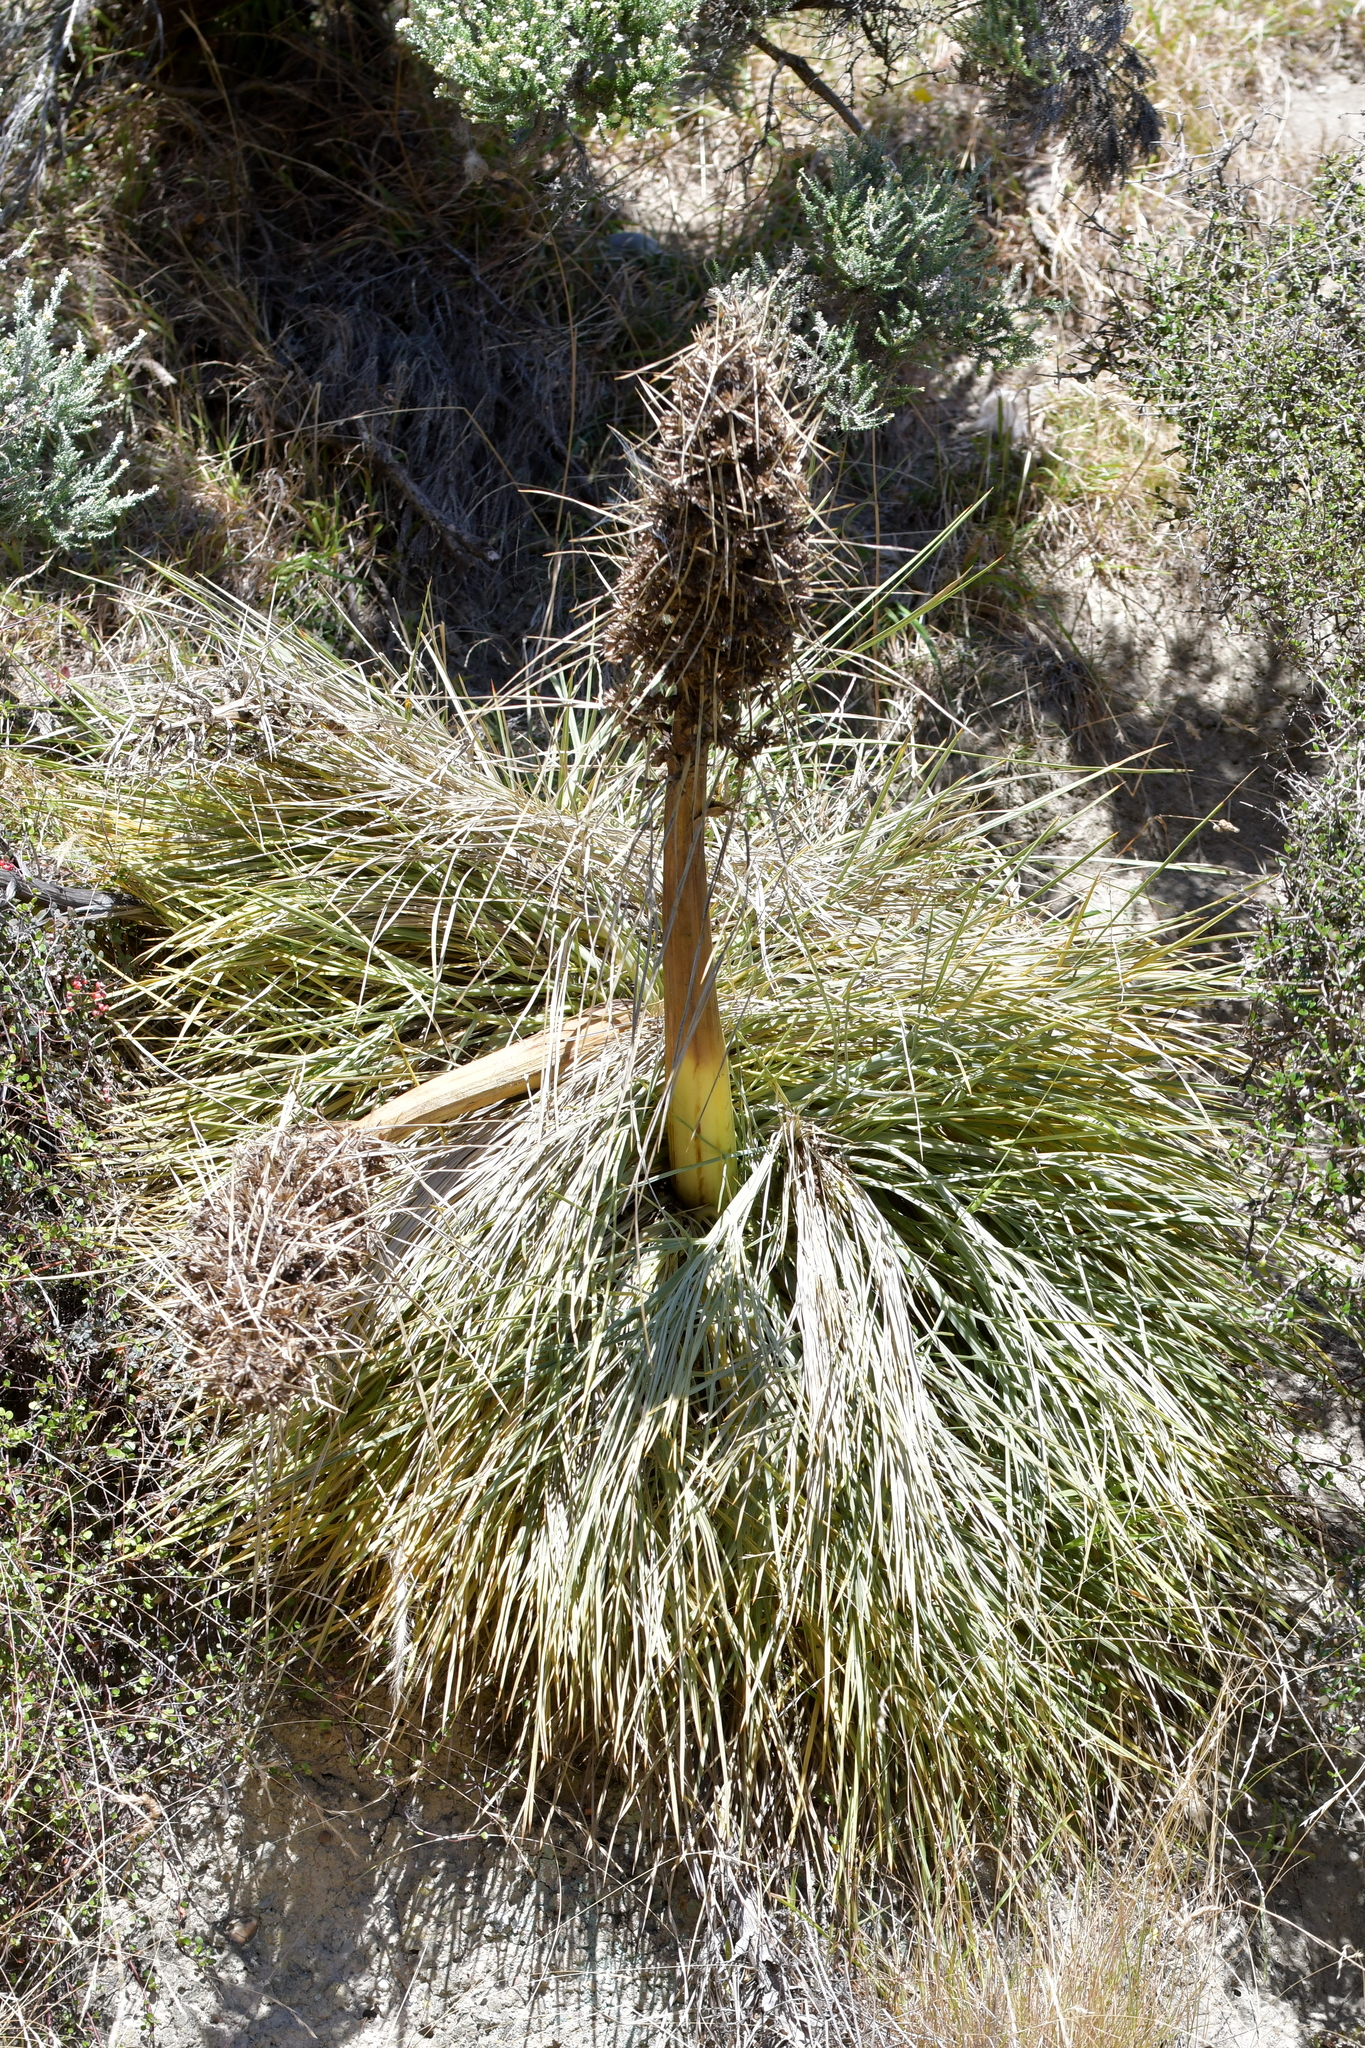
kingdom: Plantae
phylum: Tracheophyta
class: Magnoliopsida
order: Apiales
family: Apiaceae
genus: Aciphylla
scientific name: Aciphylla squarrosa
